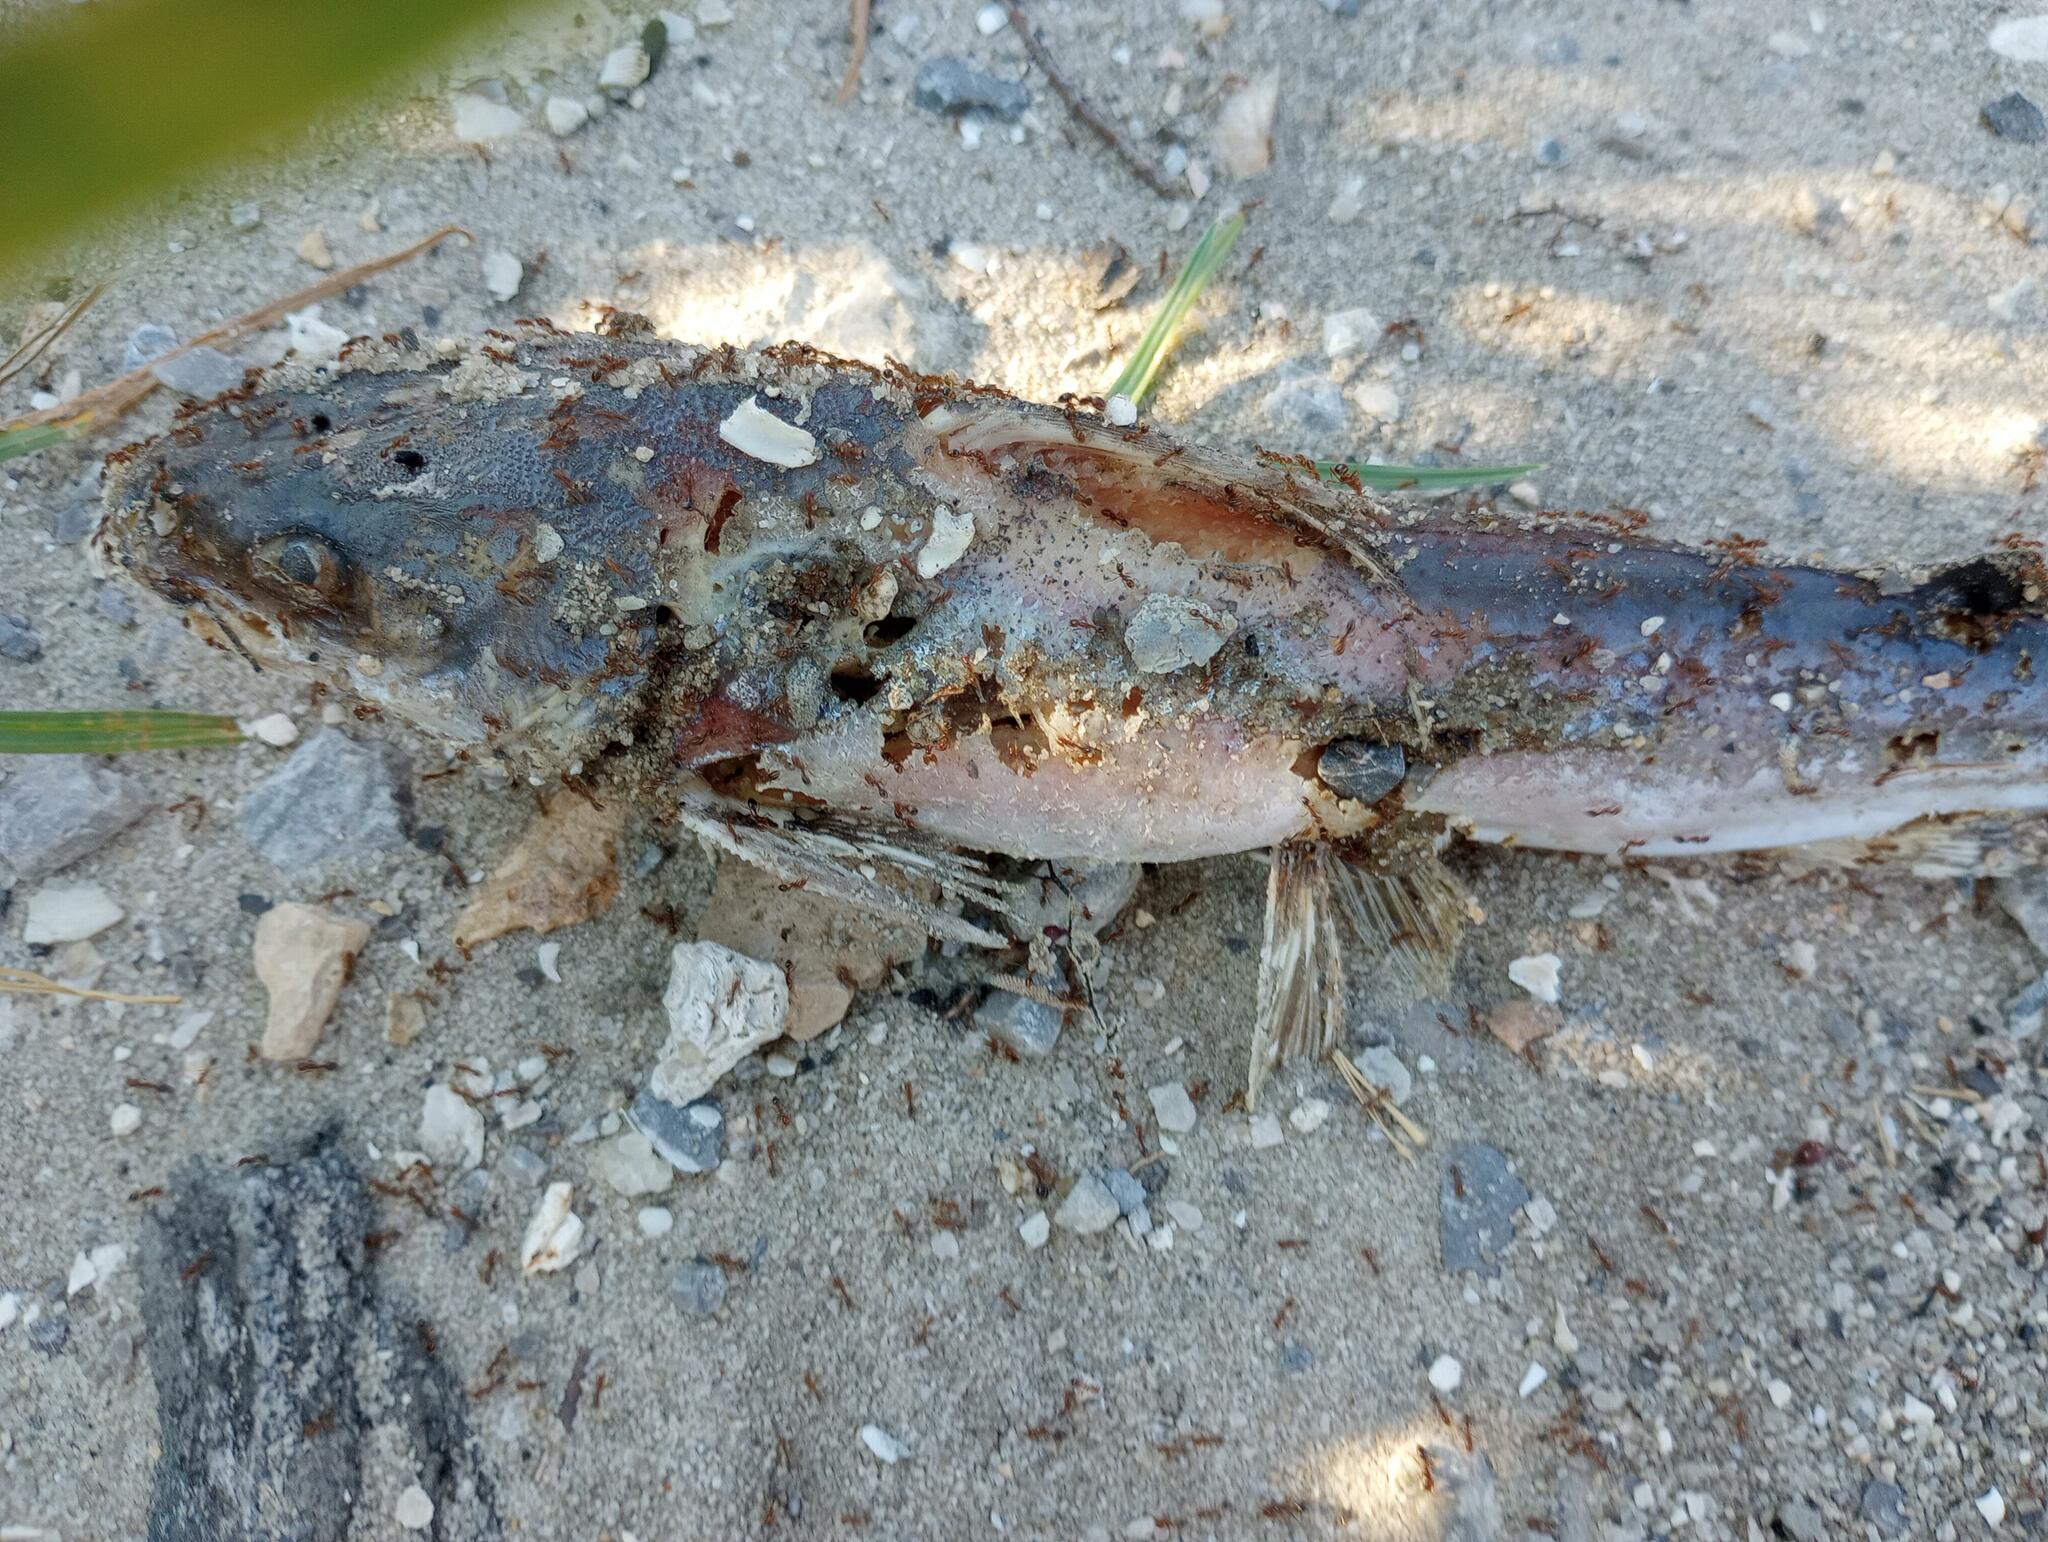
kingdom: Animalia
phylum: Chordata
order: Siluriformes
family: Ariidae
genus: Ariopsis
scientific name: Ariopsis felis
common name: Hardhead catfish
